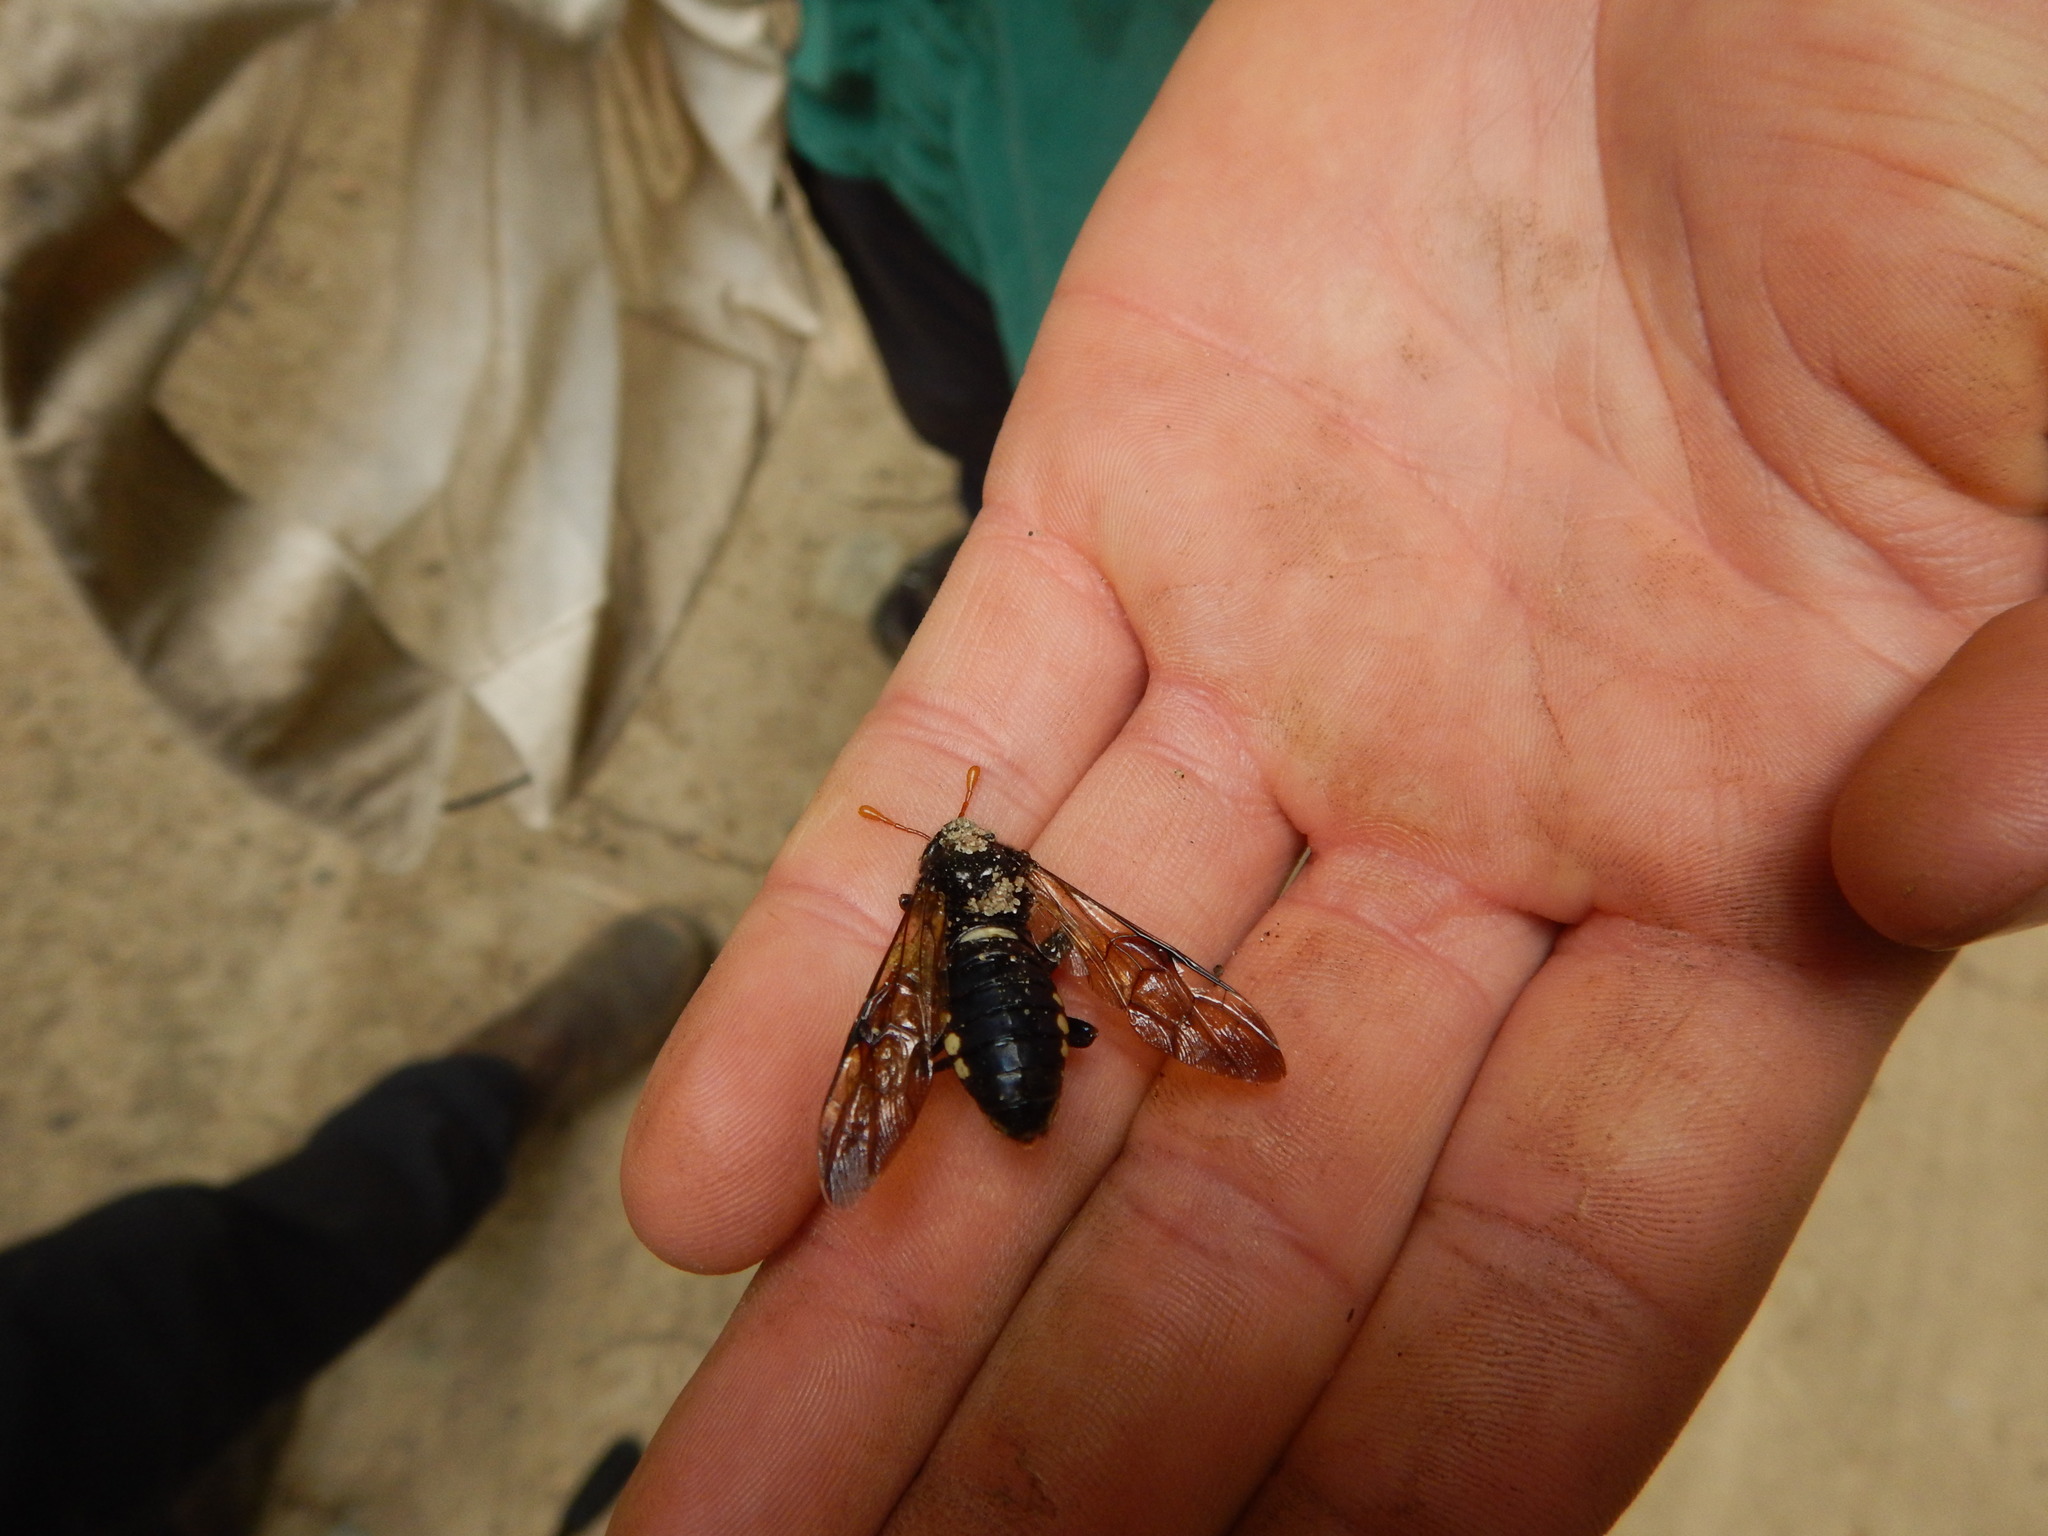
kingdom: Animalia
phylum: Arthropoda
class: Insecta
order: Hymenoptera
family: Cimbicidae
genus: Cimbex
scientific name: Cimbex americana
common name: Elm sawfly
